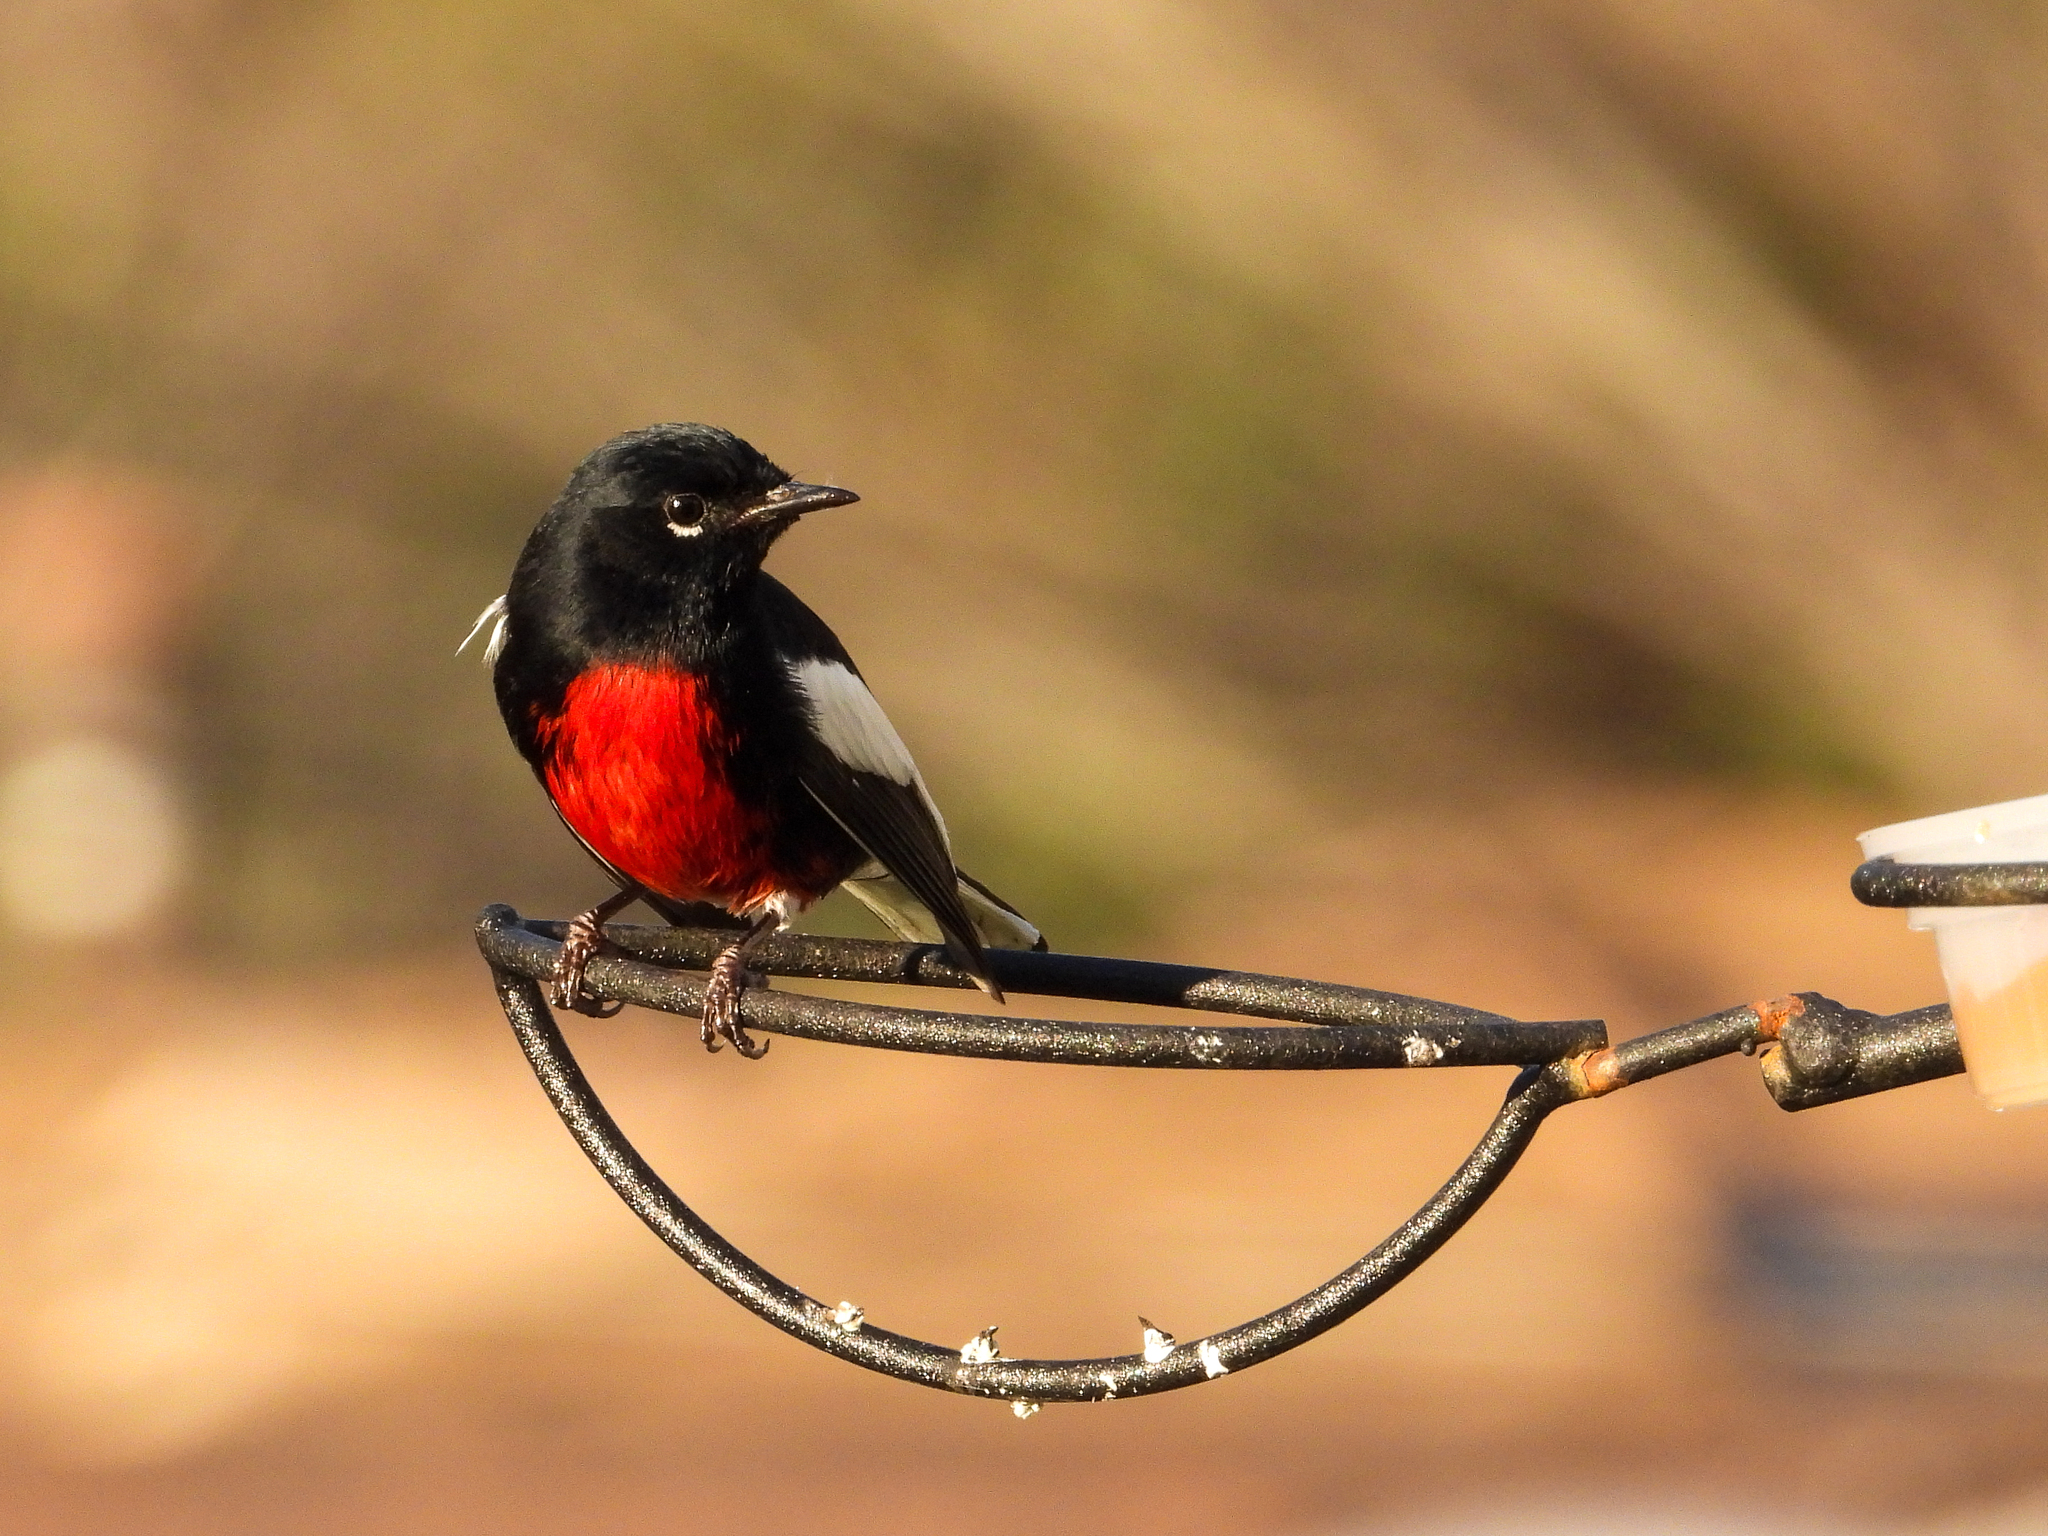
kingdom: Animalia
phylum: Chordata
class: Aves
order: Passeriformes
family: Parulidae
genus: Myioborus
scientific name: Myioborus pictus
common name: Painted whitestart
